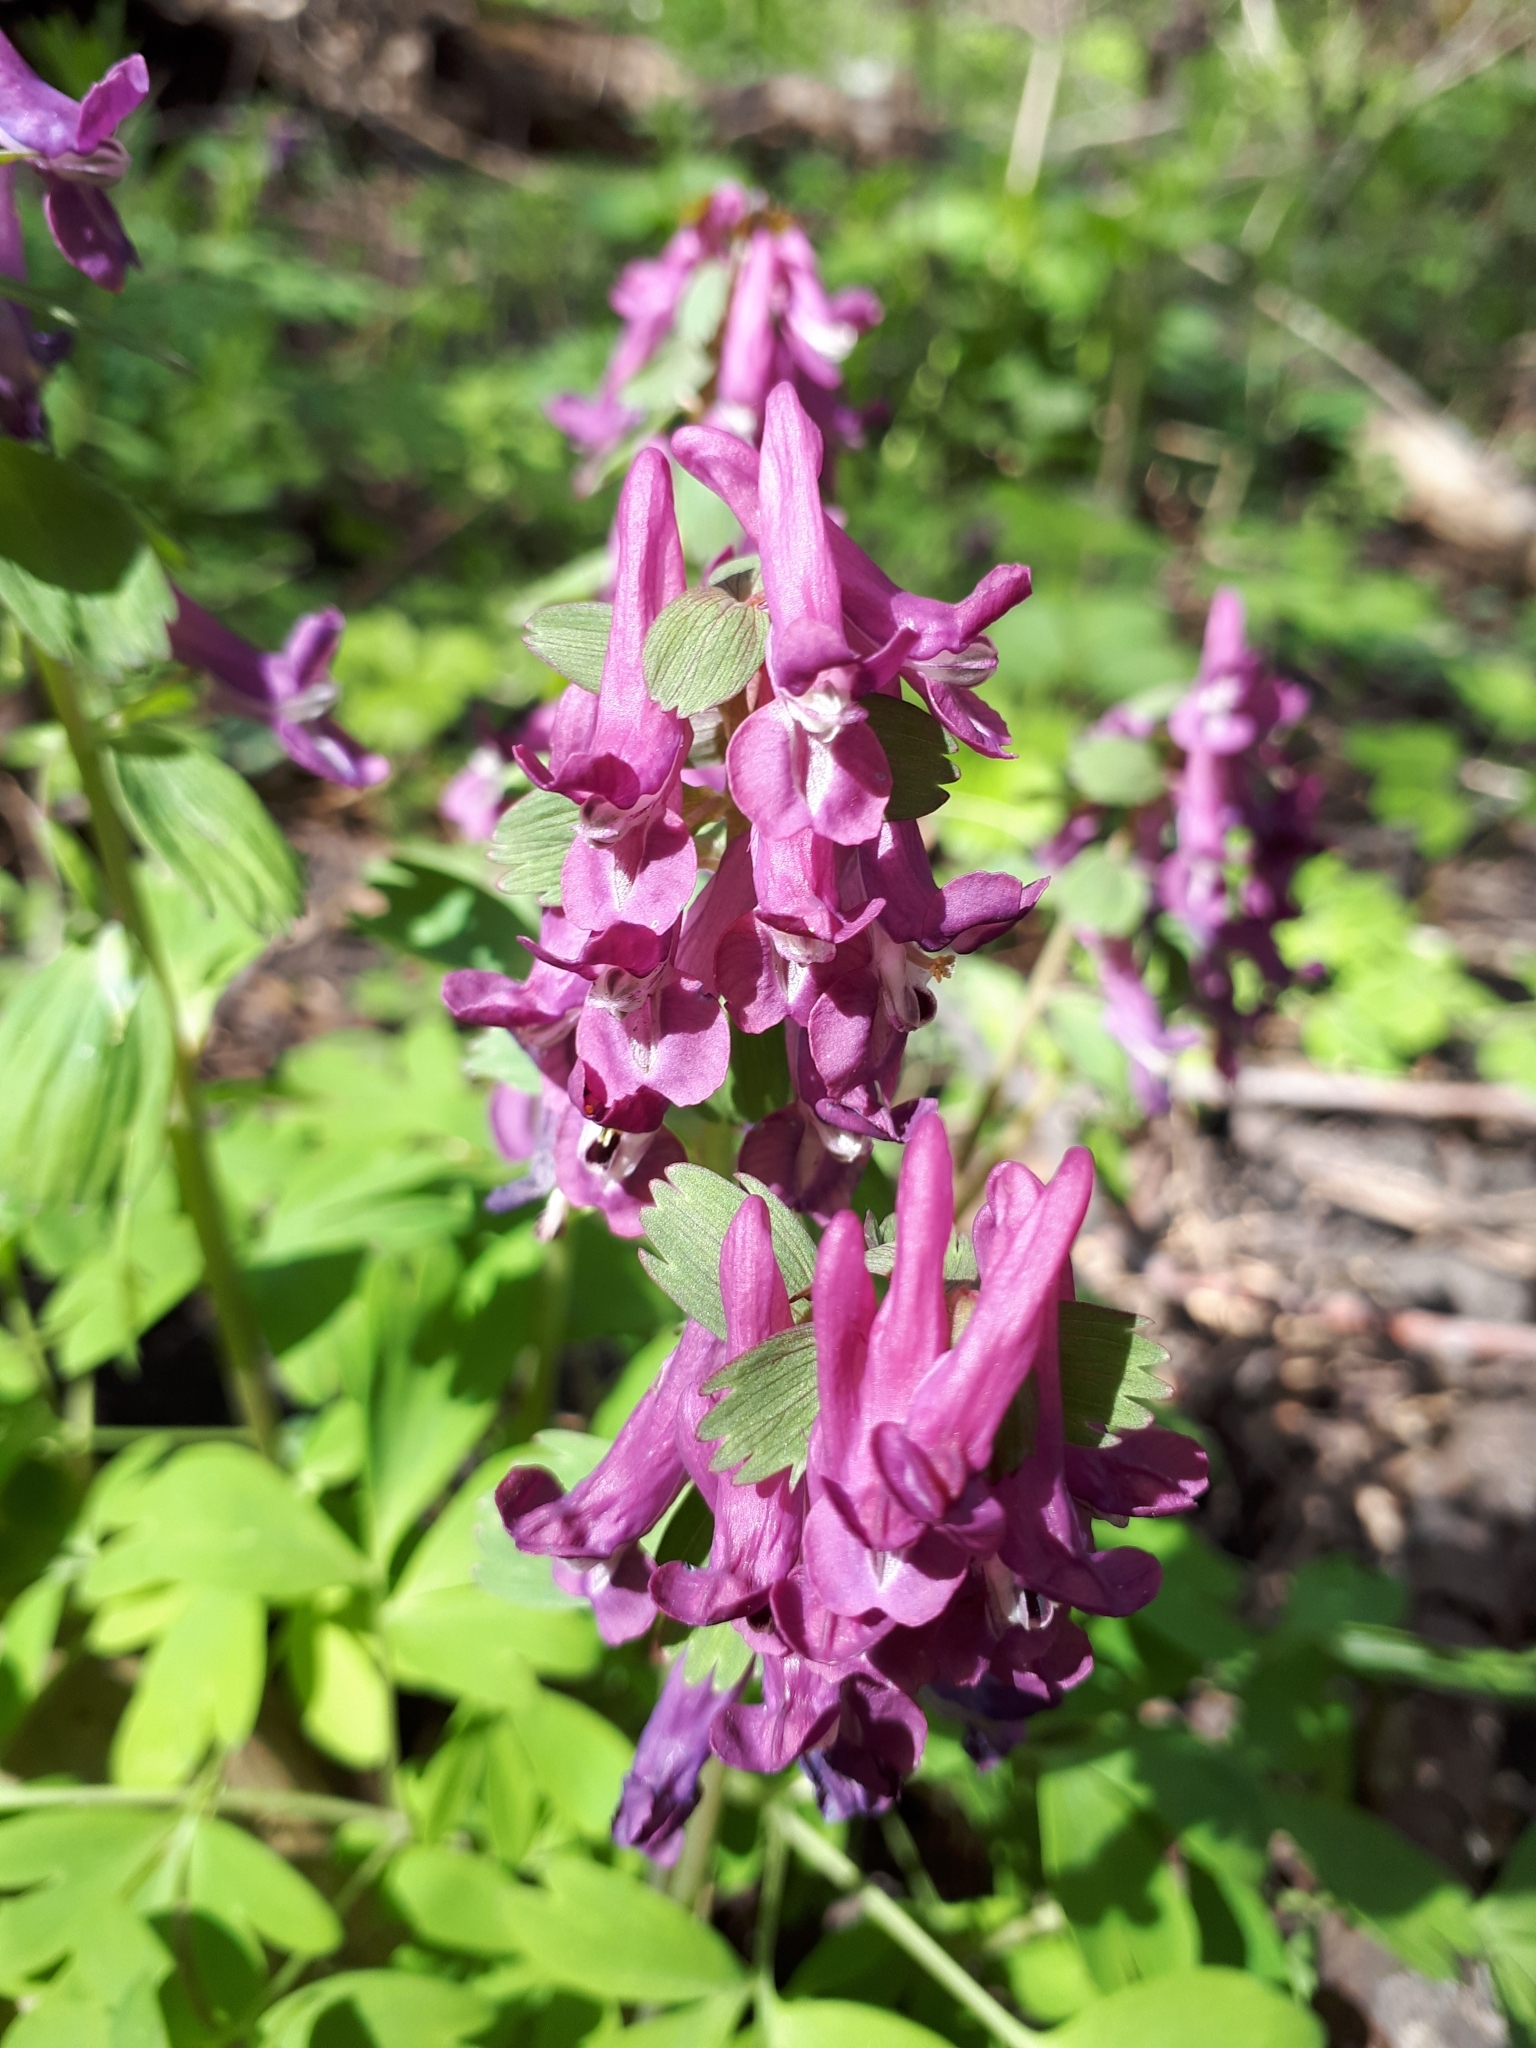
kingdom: Plantae
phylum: Tracheophyta
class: Magnoliopsida
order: Ranunculales
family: Papaveraceae
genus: Corydalis
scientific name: Corydalis solida
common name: Bird-in-a-bush
